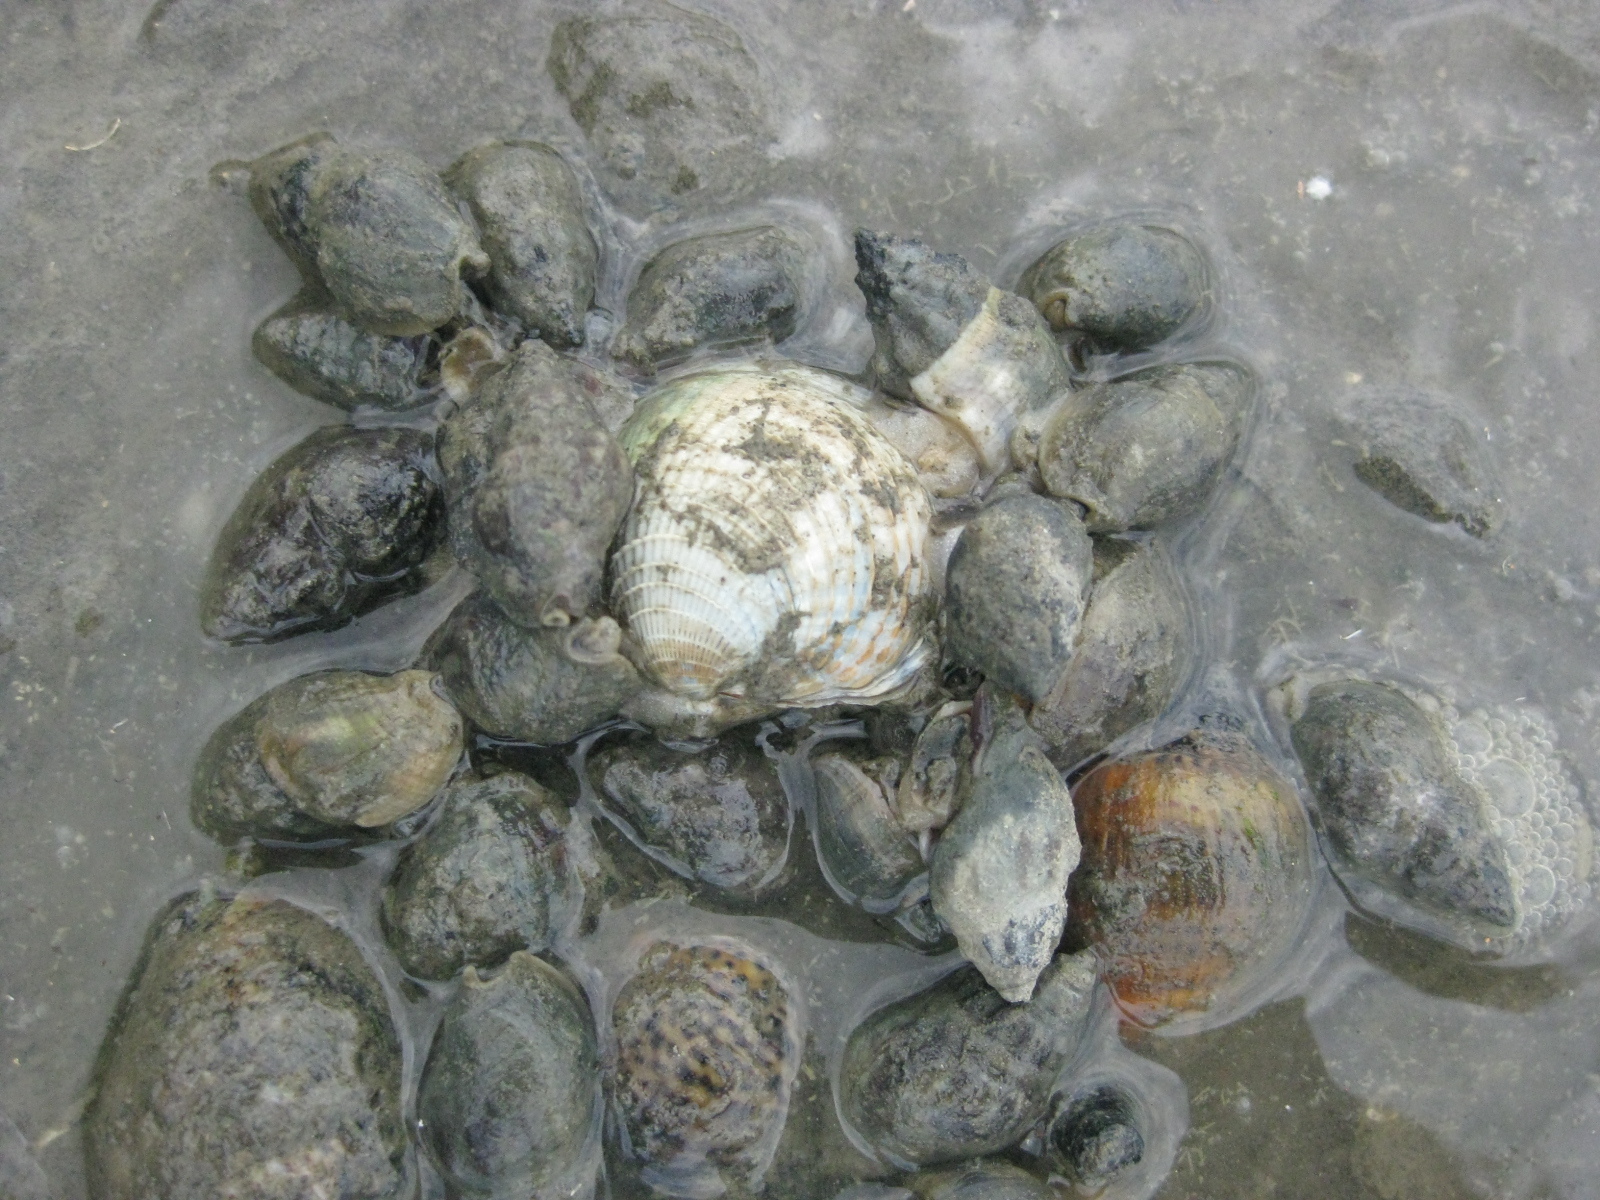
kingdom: Animalia
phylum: Mollusca
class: Gastropoda
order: Neogastropoda
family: Cominellidae
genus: Cominella
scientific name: Cominella glandiformis
